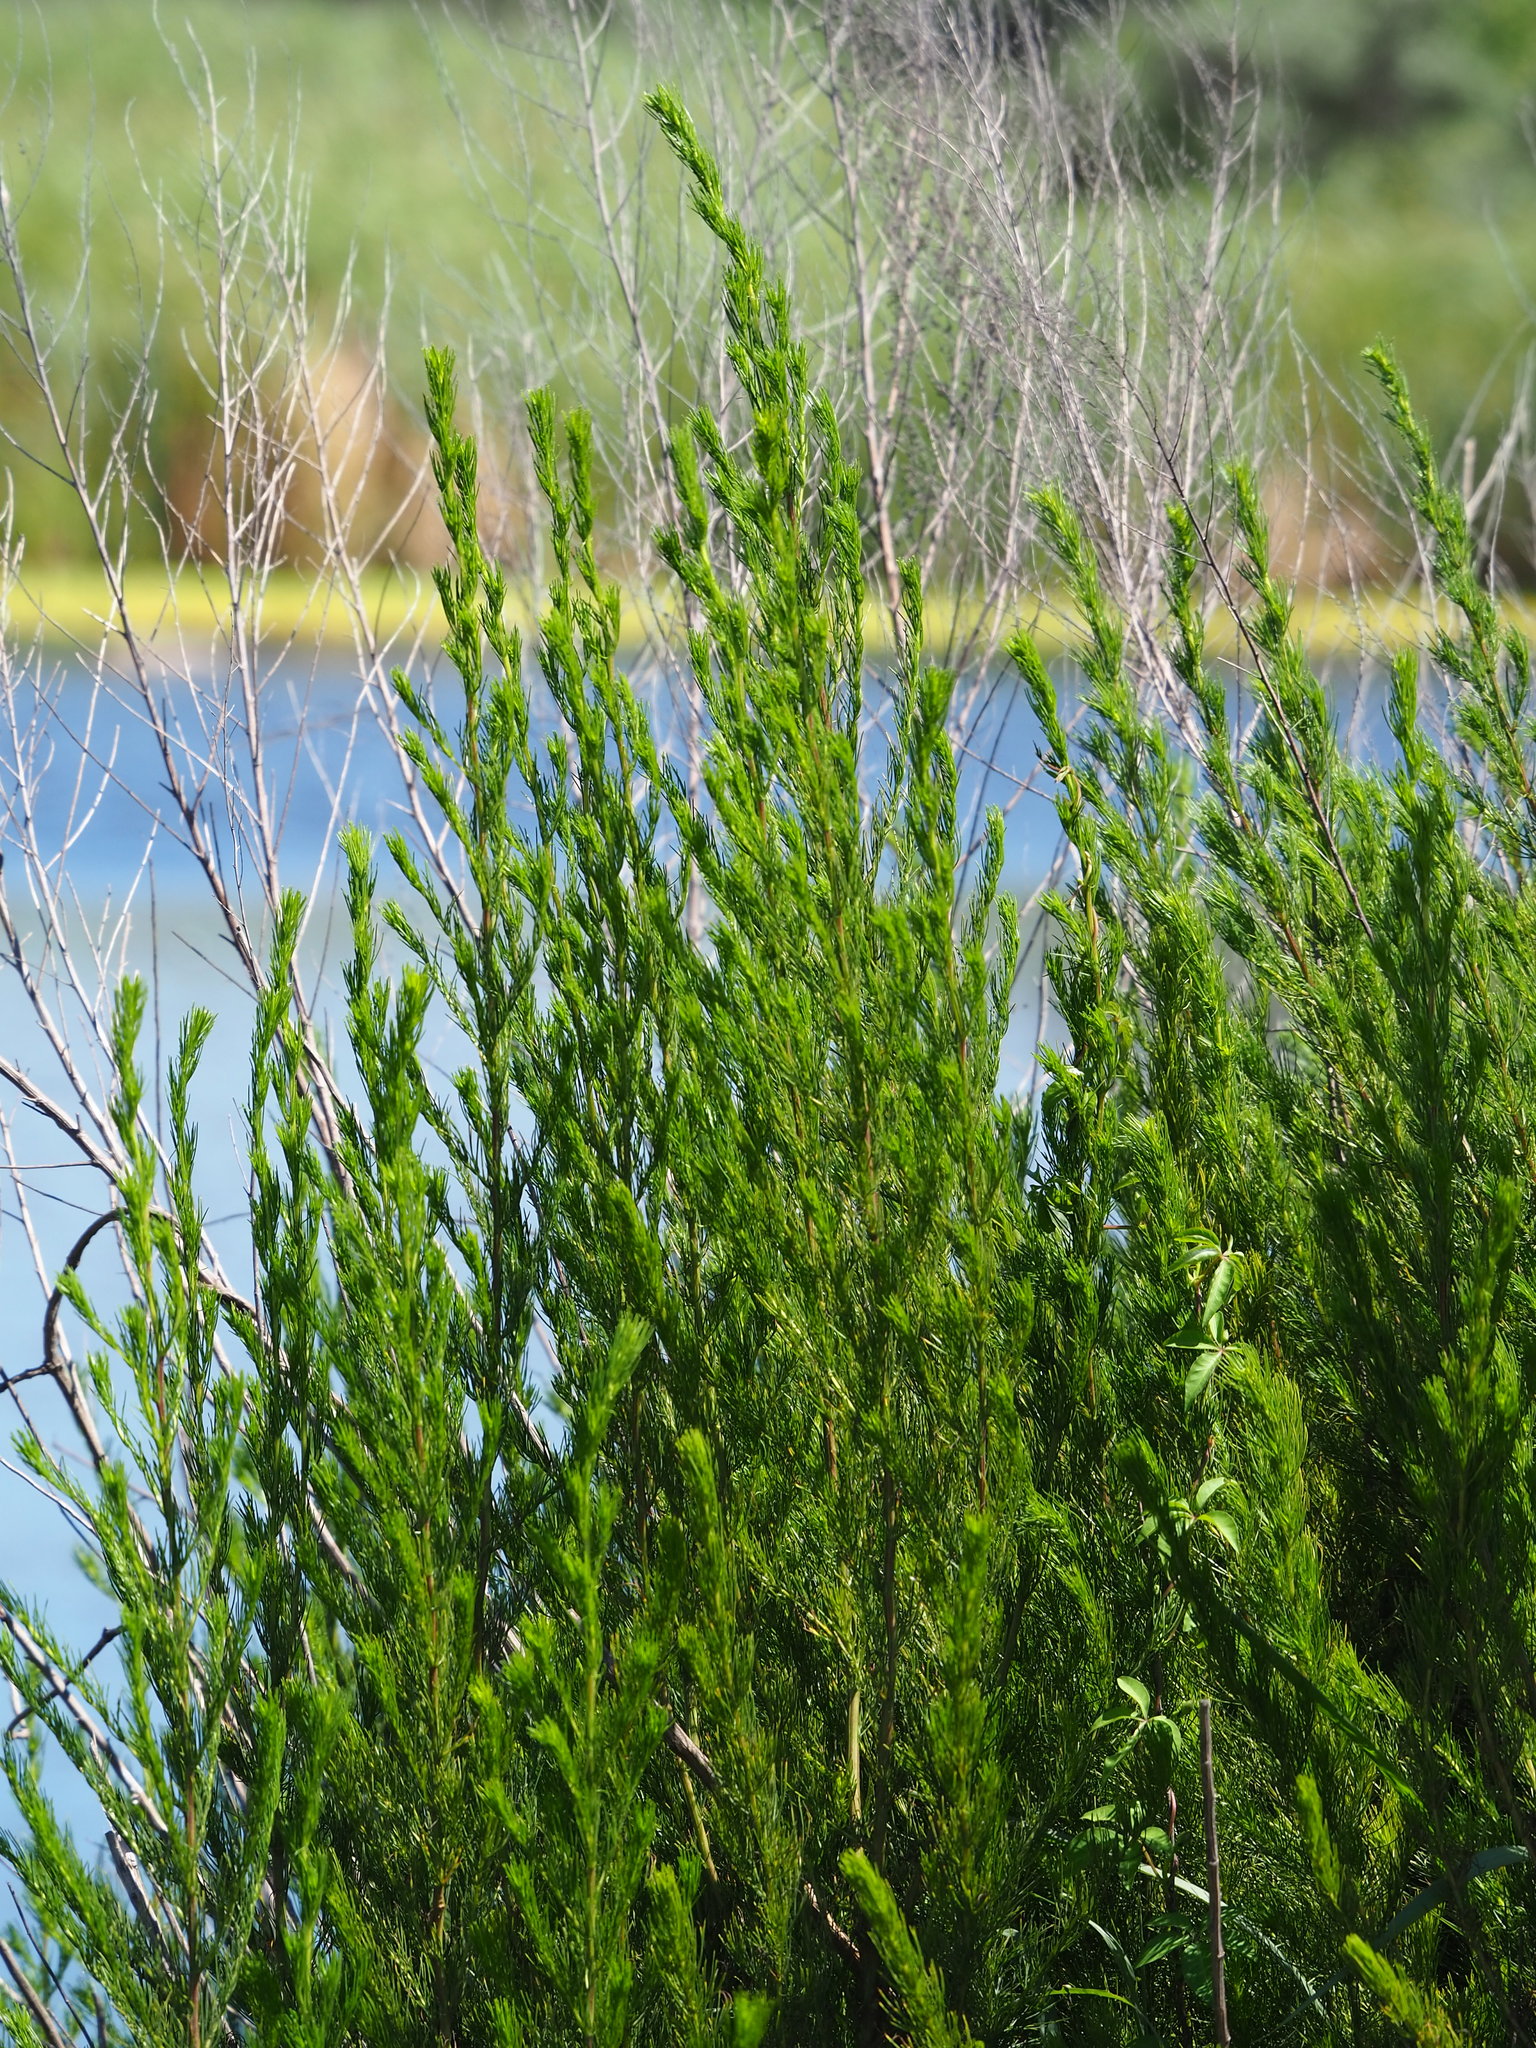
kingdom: Plantae
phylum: Tracheophyta
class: Magnoliopsida
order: Asterales
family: Asteraceae
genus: Artemisia
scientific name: Artemisia capillaris
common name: Yin-chen wormwood
